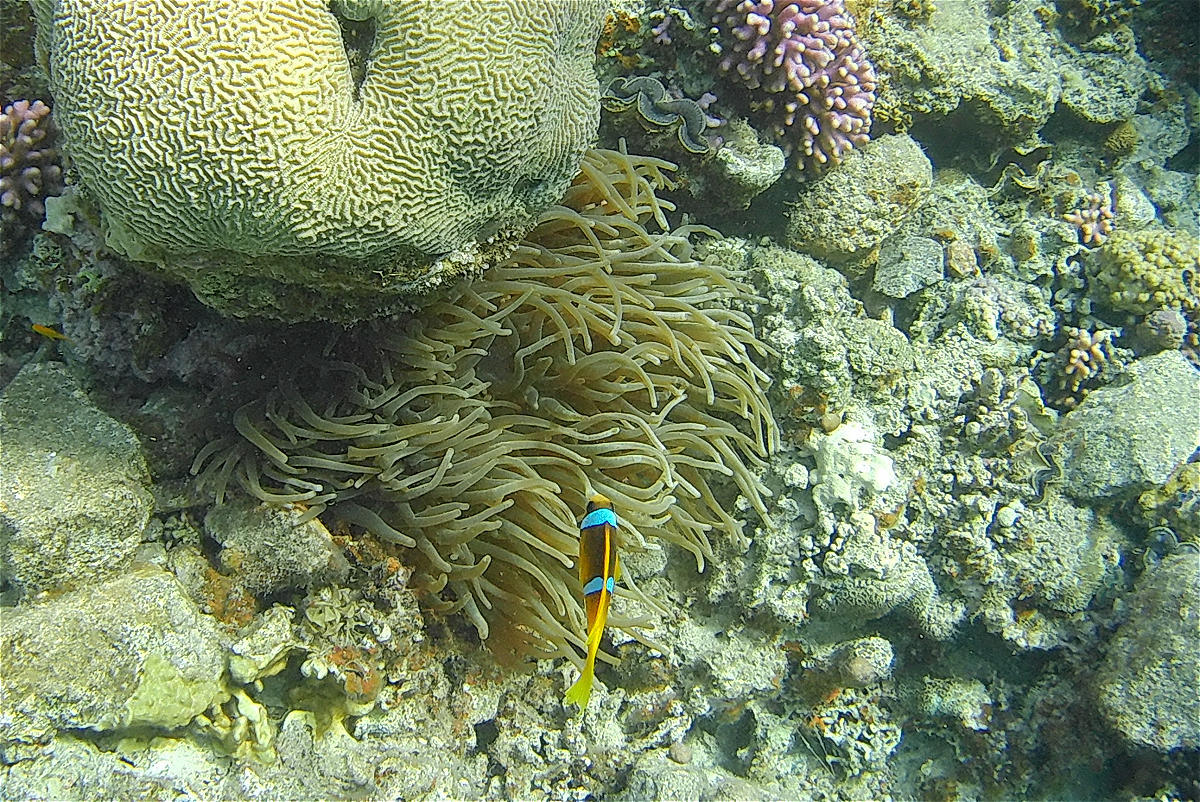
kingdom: Animalia
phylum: Cnidaria
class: Anthozoa
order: Actiniaria
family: Actiniidae
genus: Entacmaea
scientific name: Entacmaea quadricolor
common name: Bulb tentacle sea anemone
